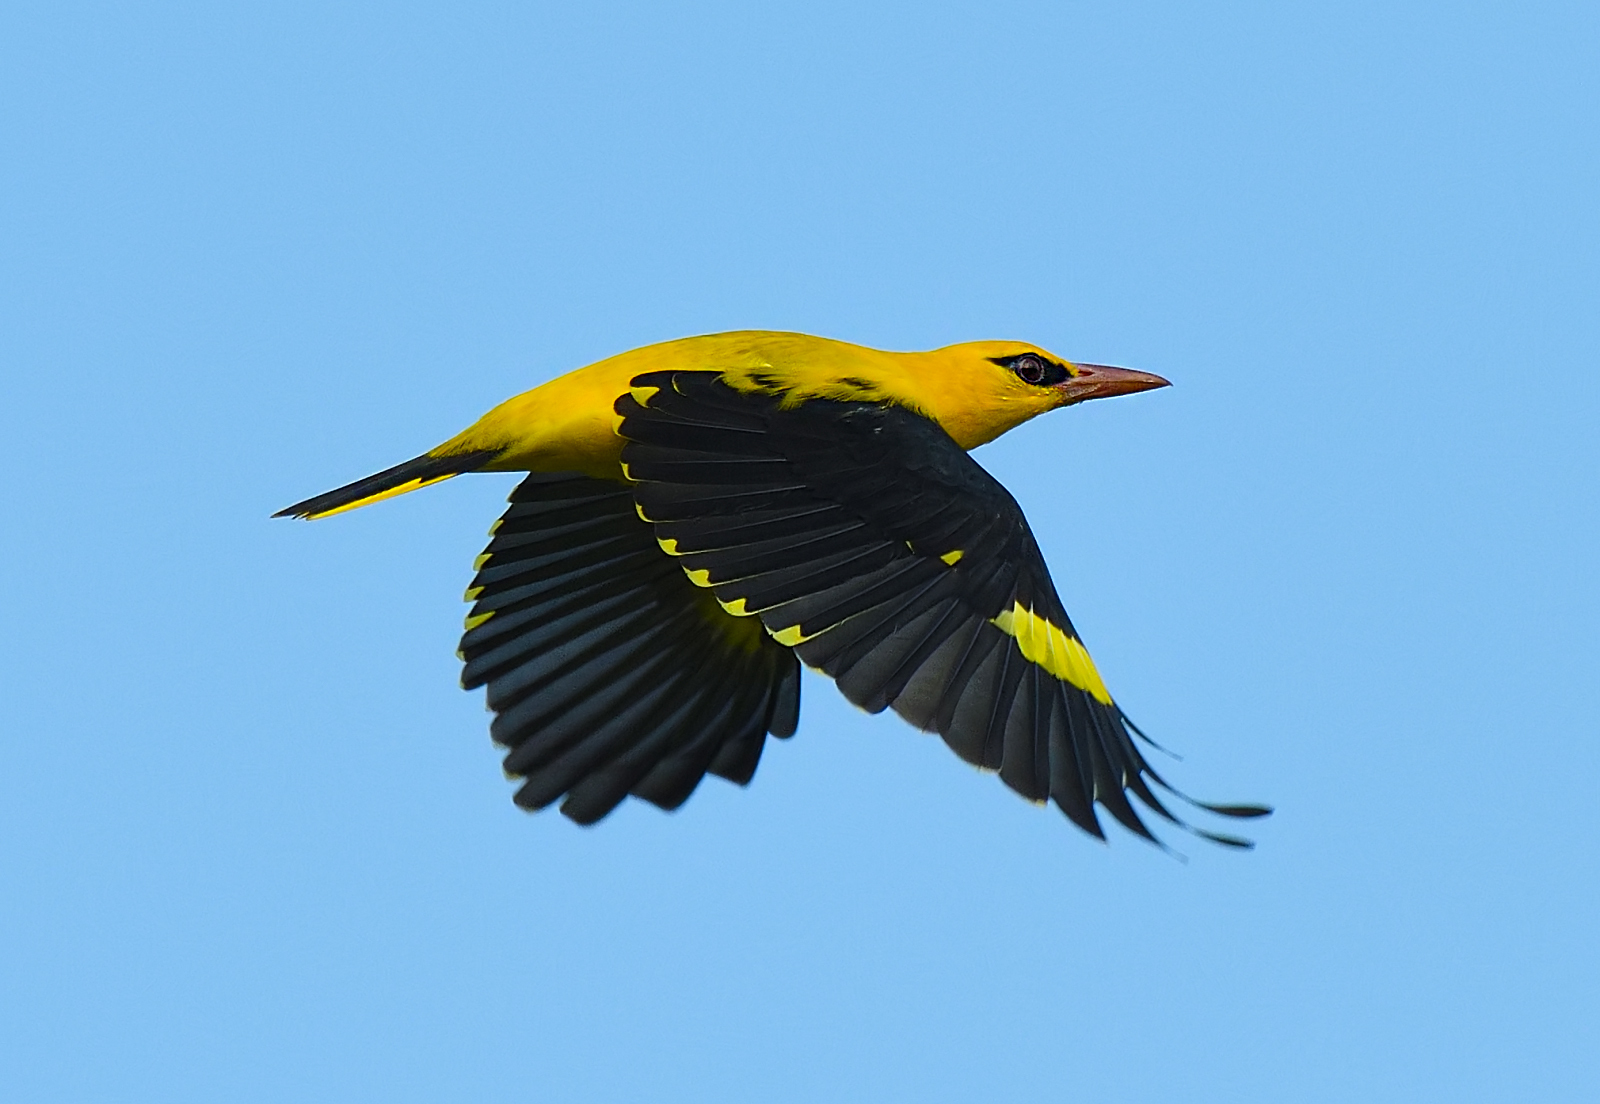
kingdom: Animalia
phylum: Chordata
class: Aves
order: Passeriformes
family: Oriolidae
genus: Oriolus
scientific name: Oriolus kundoo
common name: Indian golden oriole
